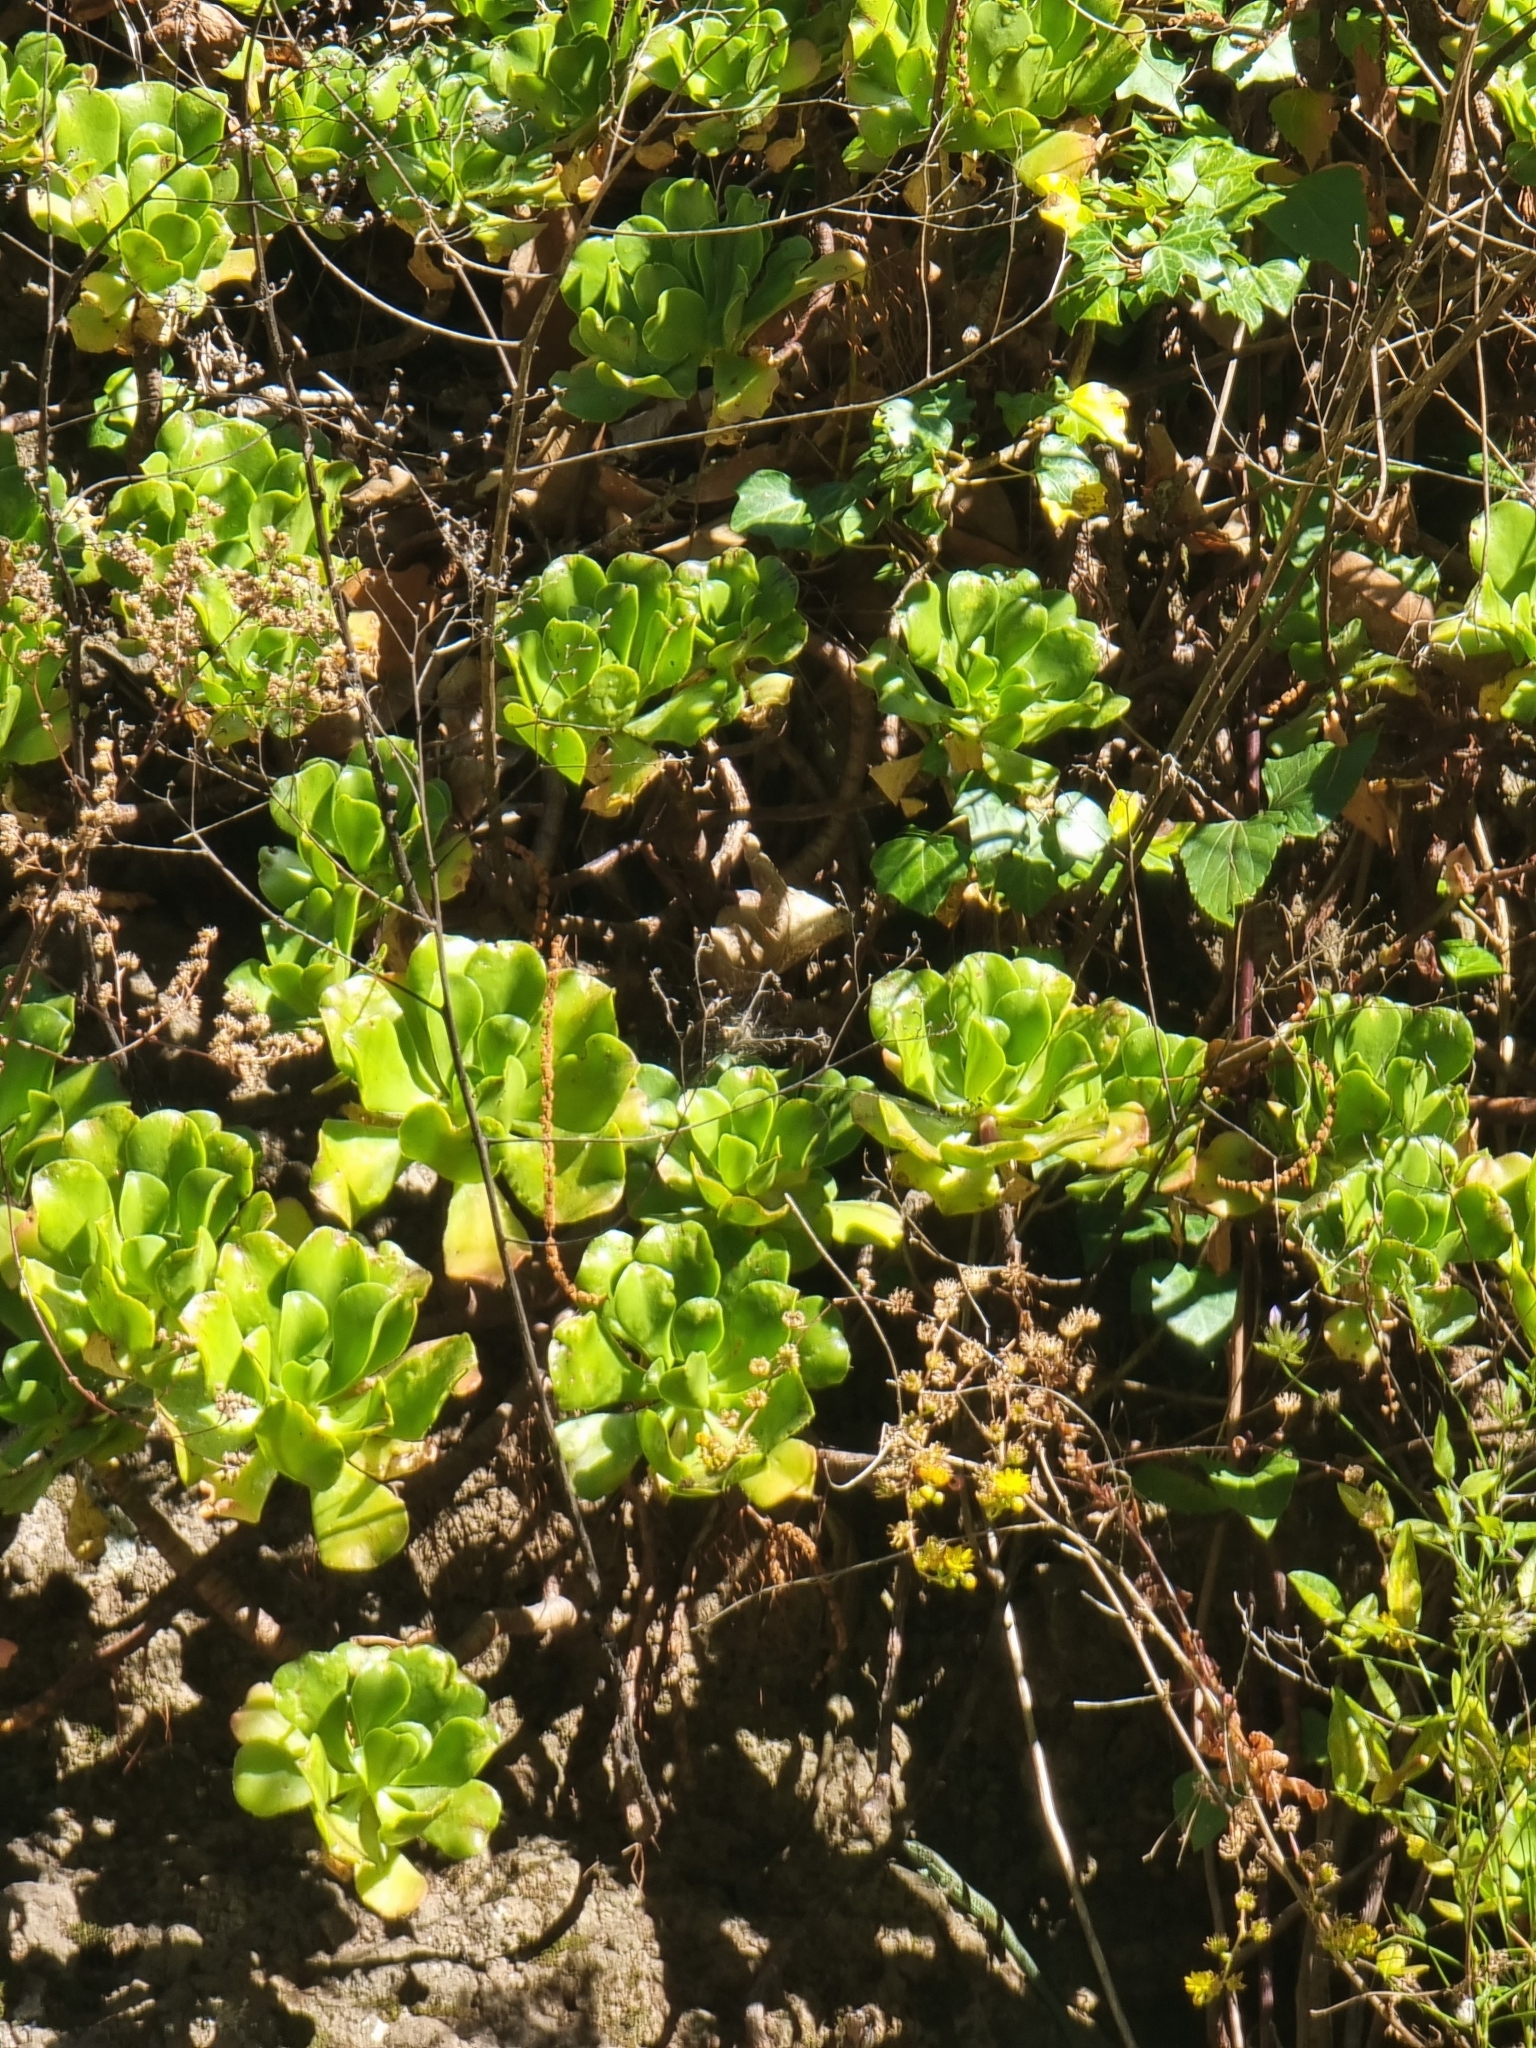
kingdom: Plantae
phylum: Tracheophyta
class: Magnoliopsida
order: Saxifragales
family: Crassulaceae
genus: Aeonium
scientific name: Aeonium glutinosum
